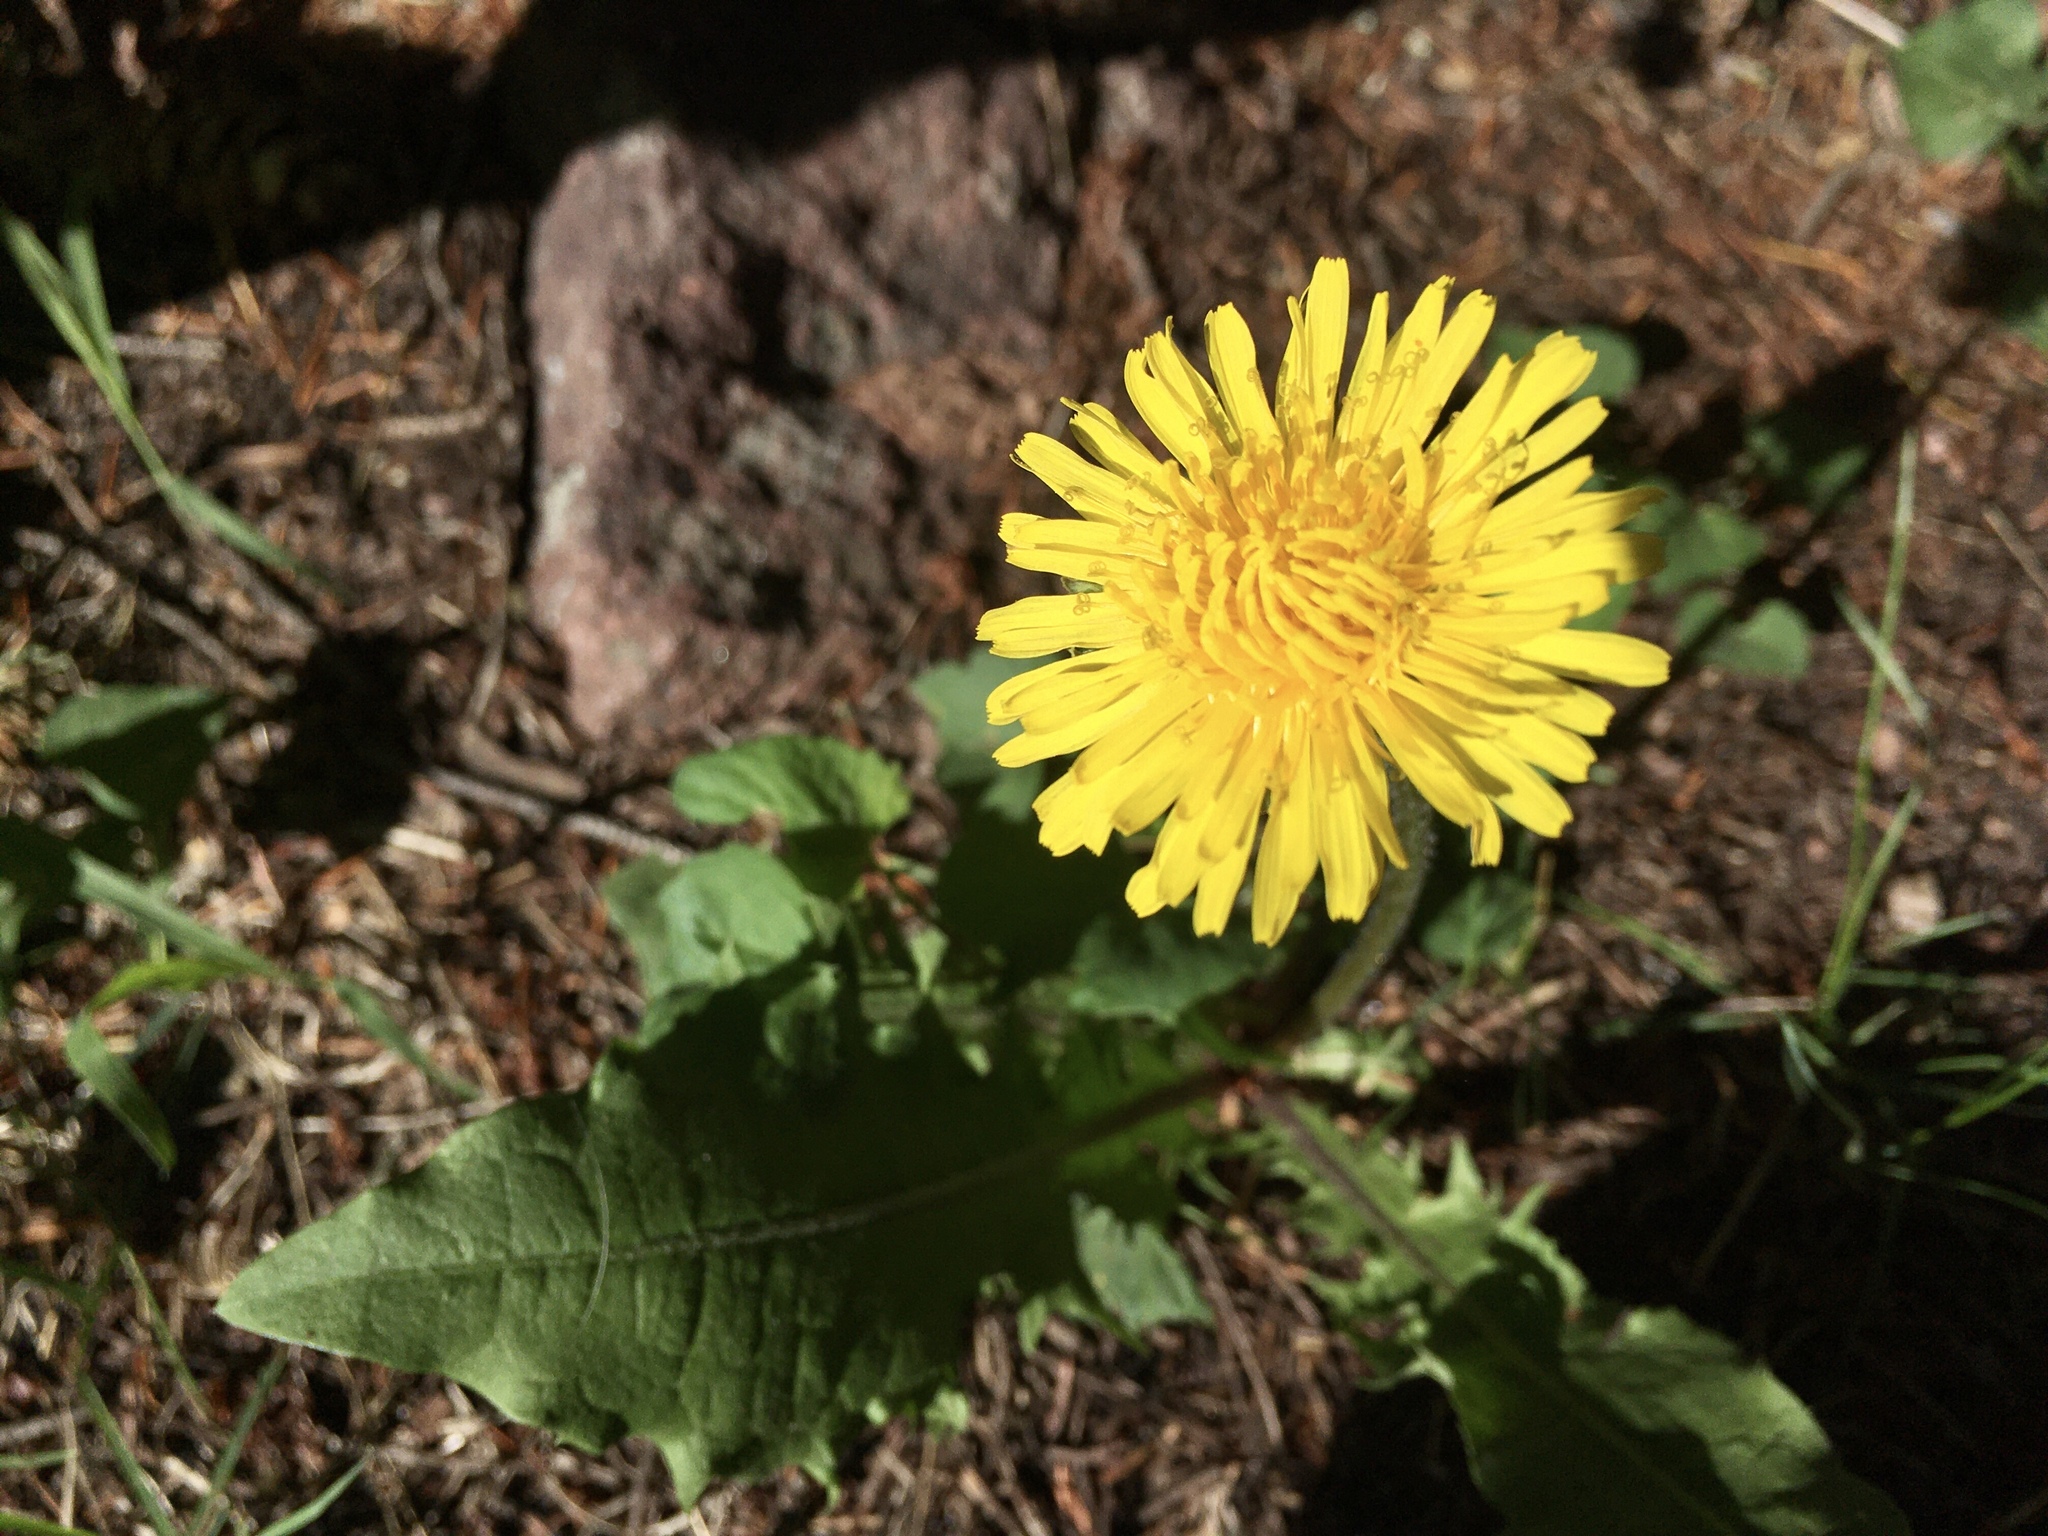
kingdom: Plantae
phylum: Tracheophyta
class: Magnoliopsida
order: Asterales
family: Asteraceae
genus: Taraxacum
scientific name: Taraxacum officinale
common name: Common dandelion
